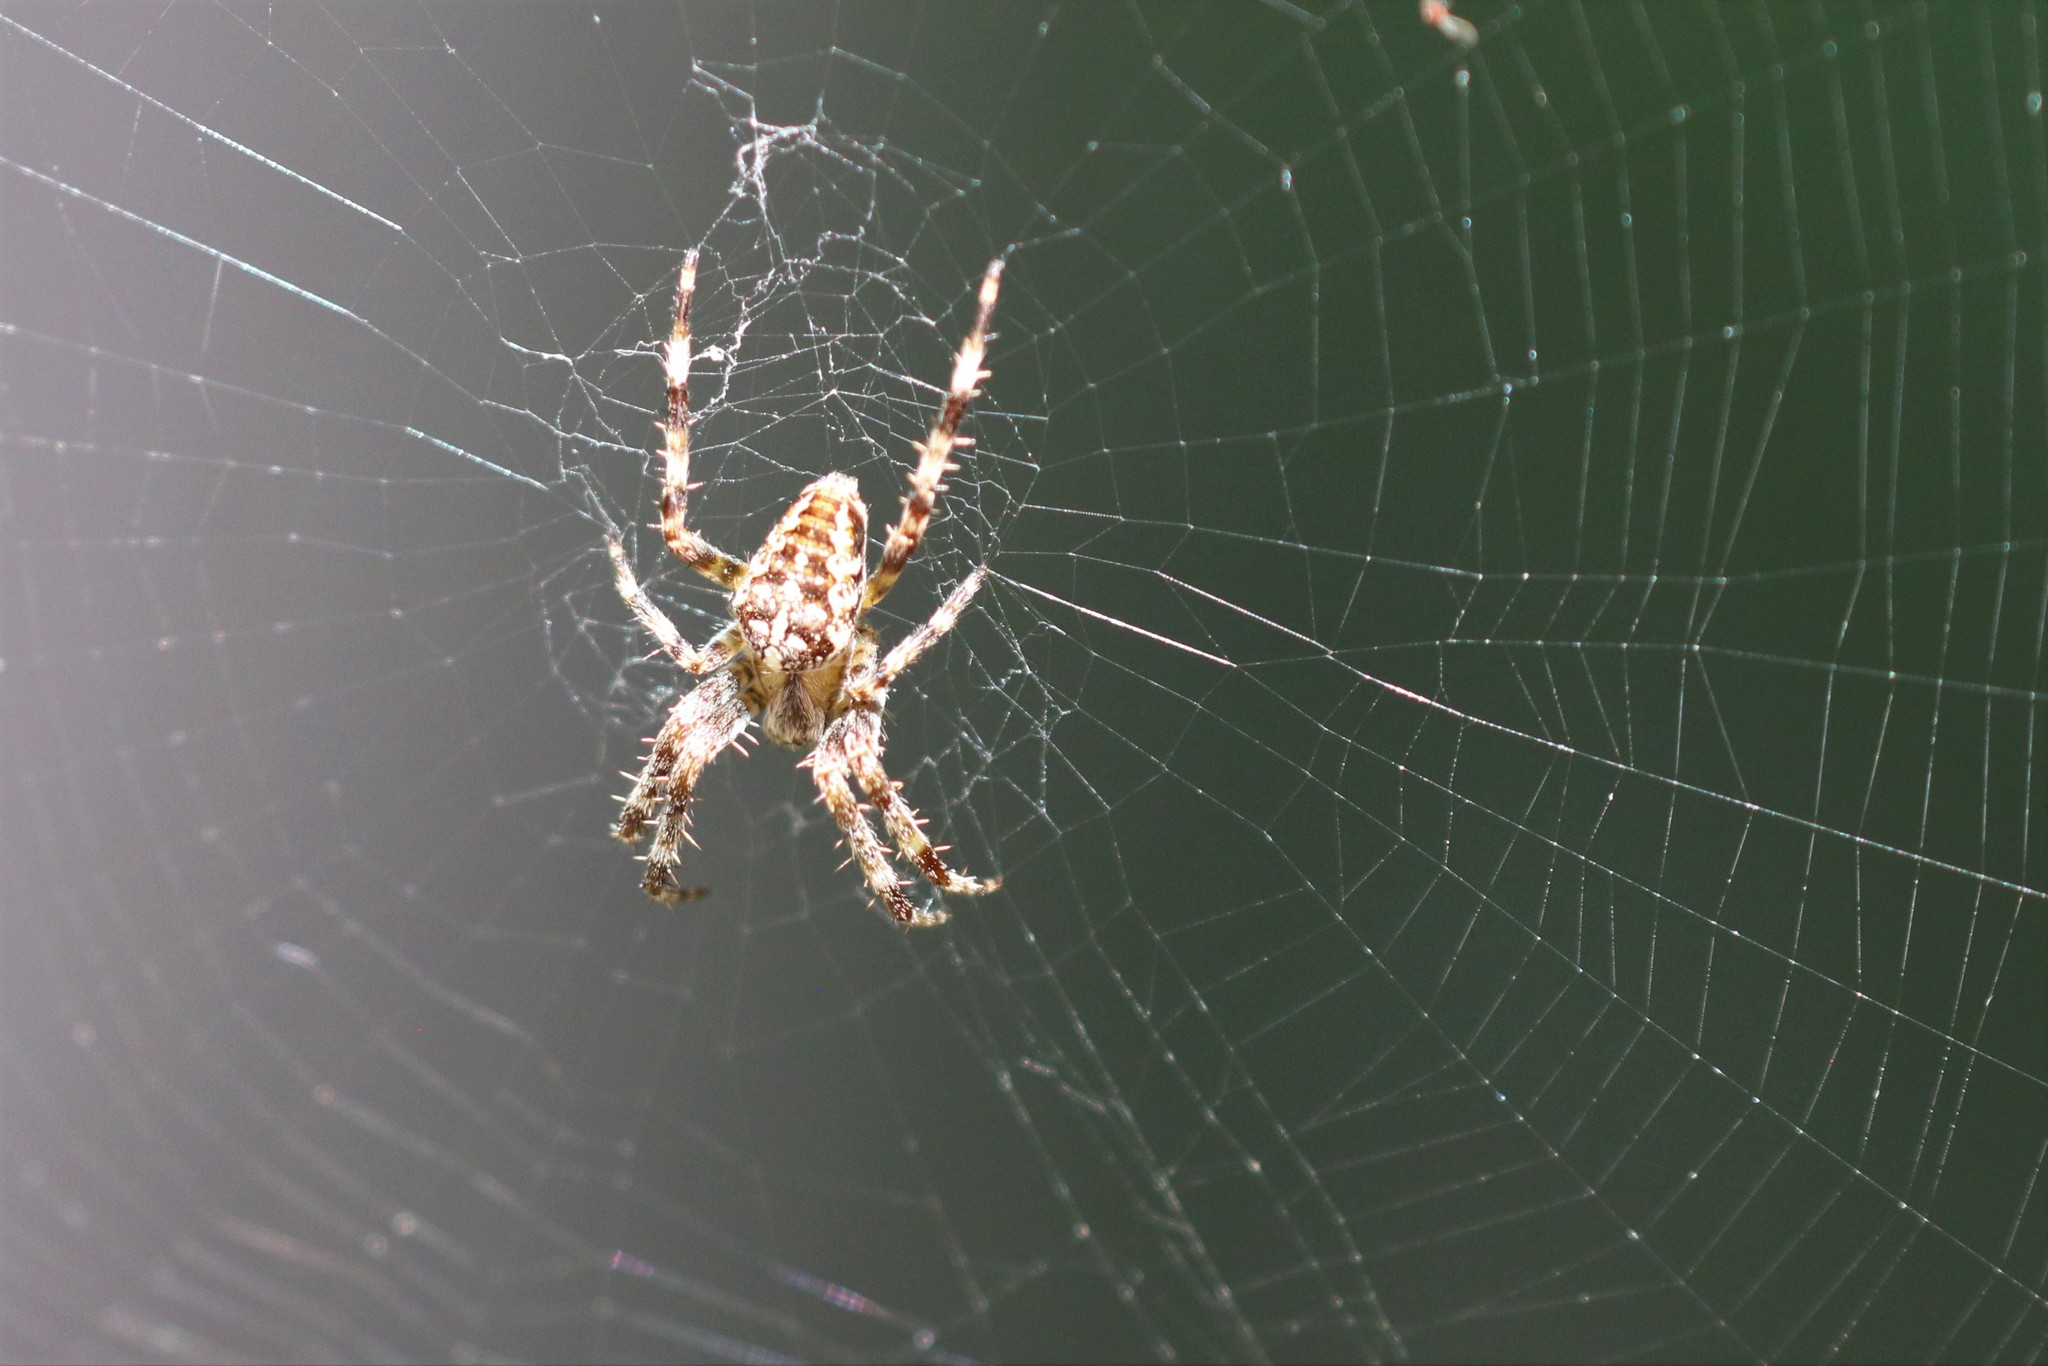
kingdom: Animalia
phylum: Arthropoda
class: Arachnida
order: Araneae
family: Araneidae
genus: Araneus
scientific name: Araneus diadematus
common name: Cross orbweaver
